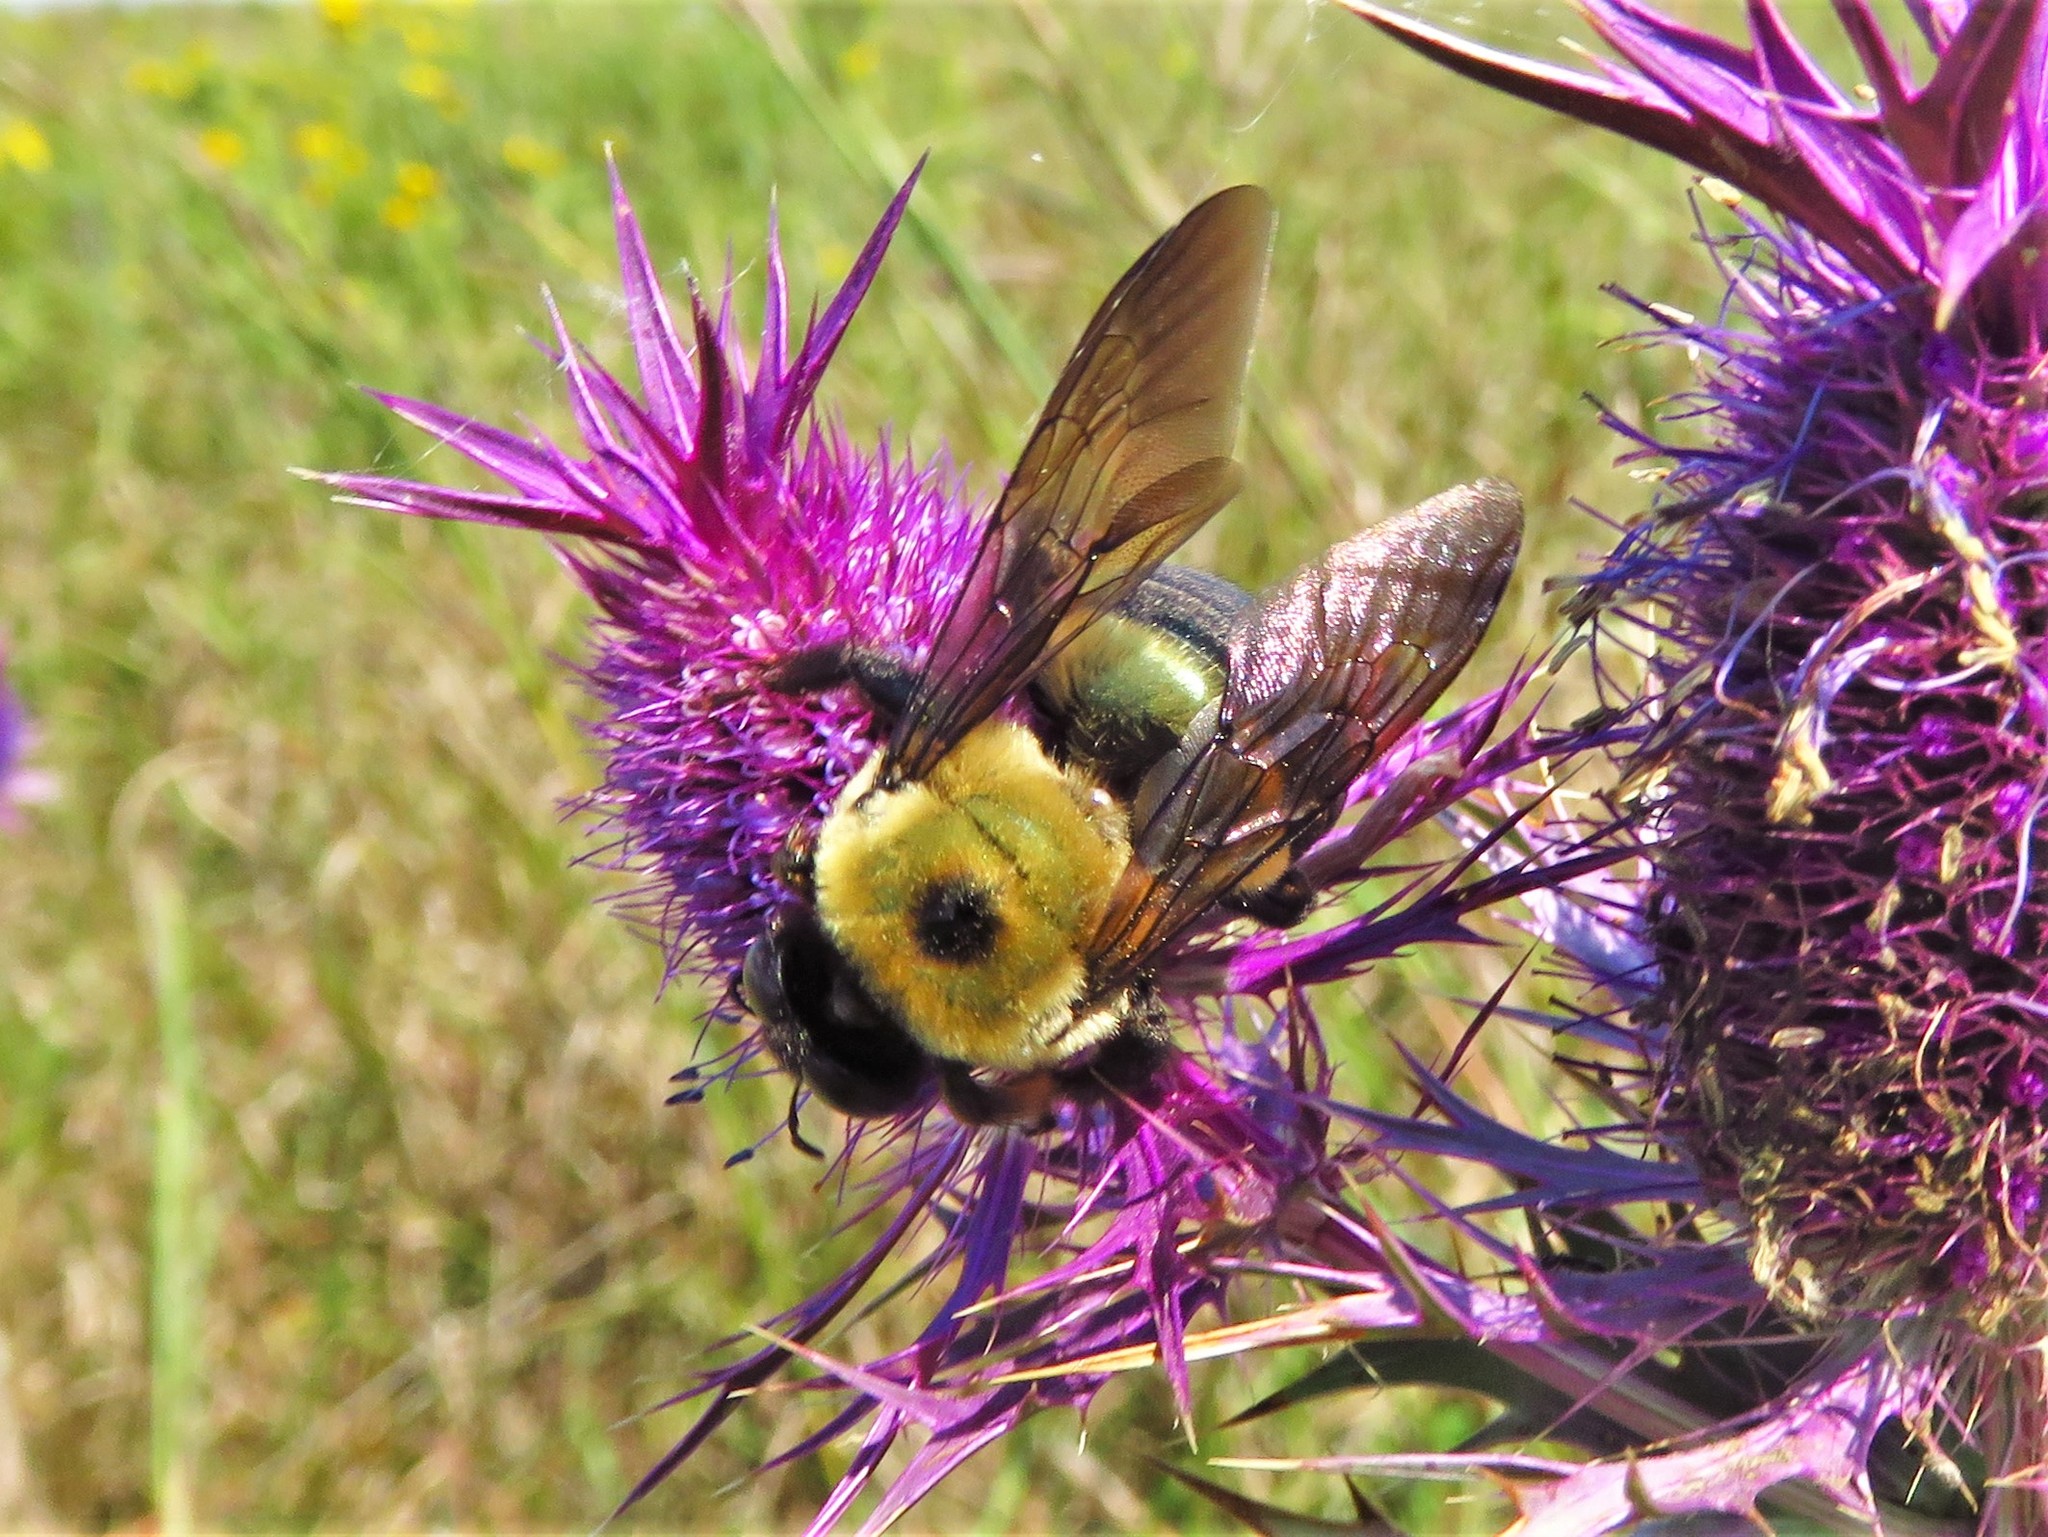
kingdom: Animalia
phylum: Arthropoda
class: Insecta
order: Hymenoptera
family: Apidae
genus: Xylocopa
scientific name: Xylocopa virginica
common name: Carpenter bee
